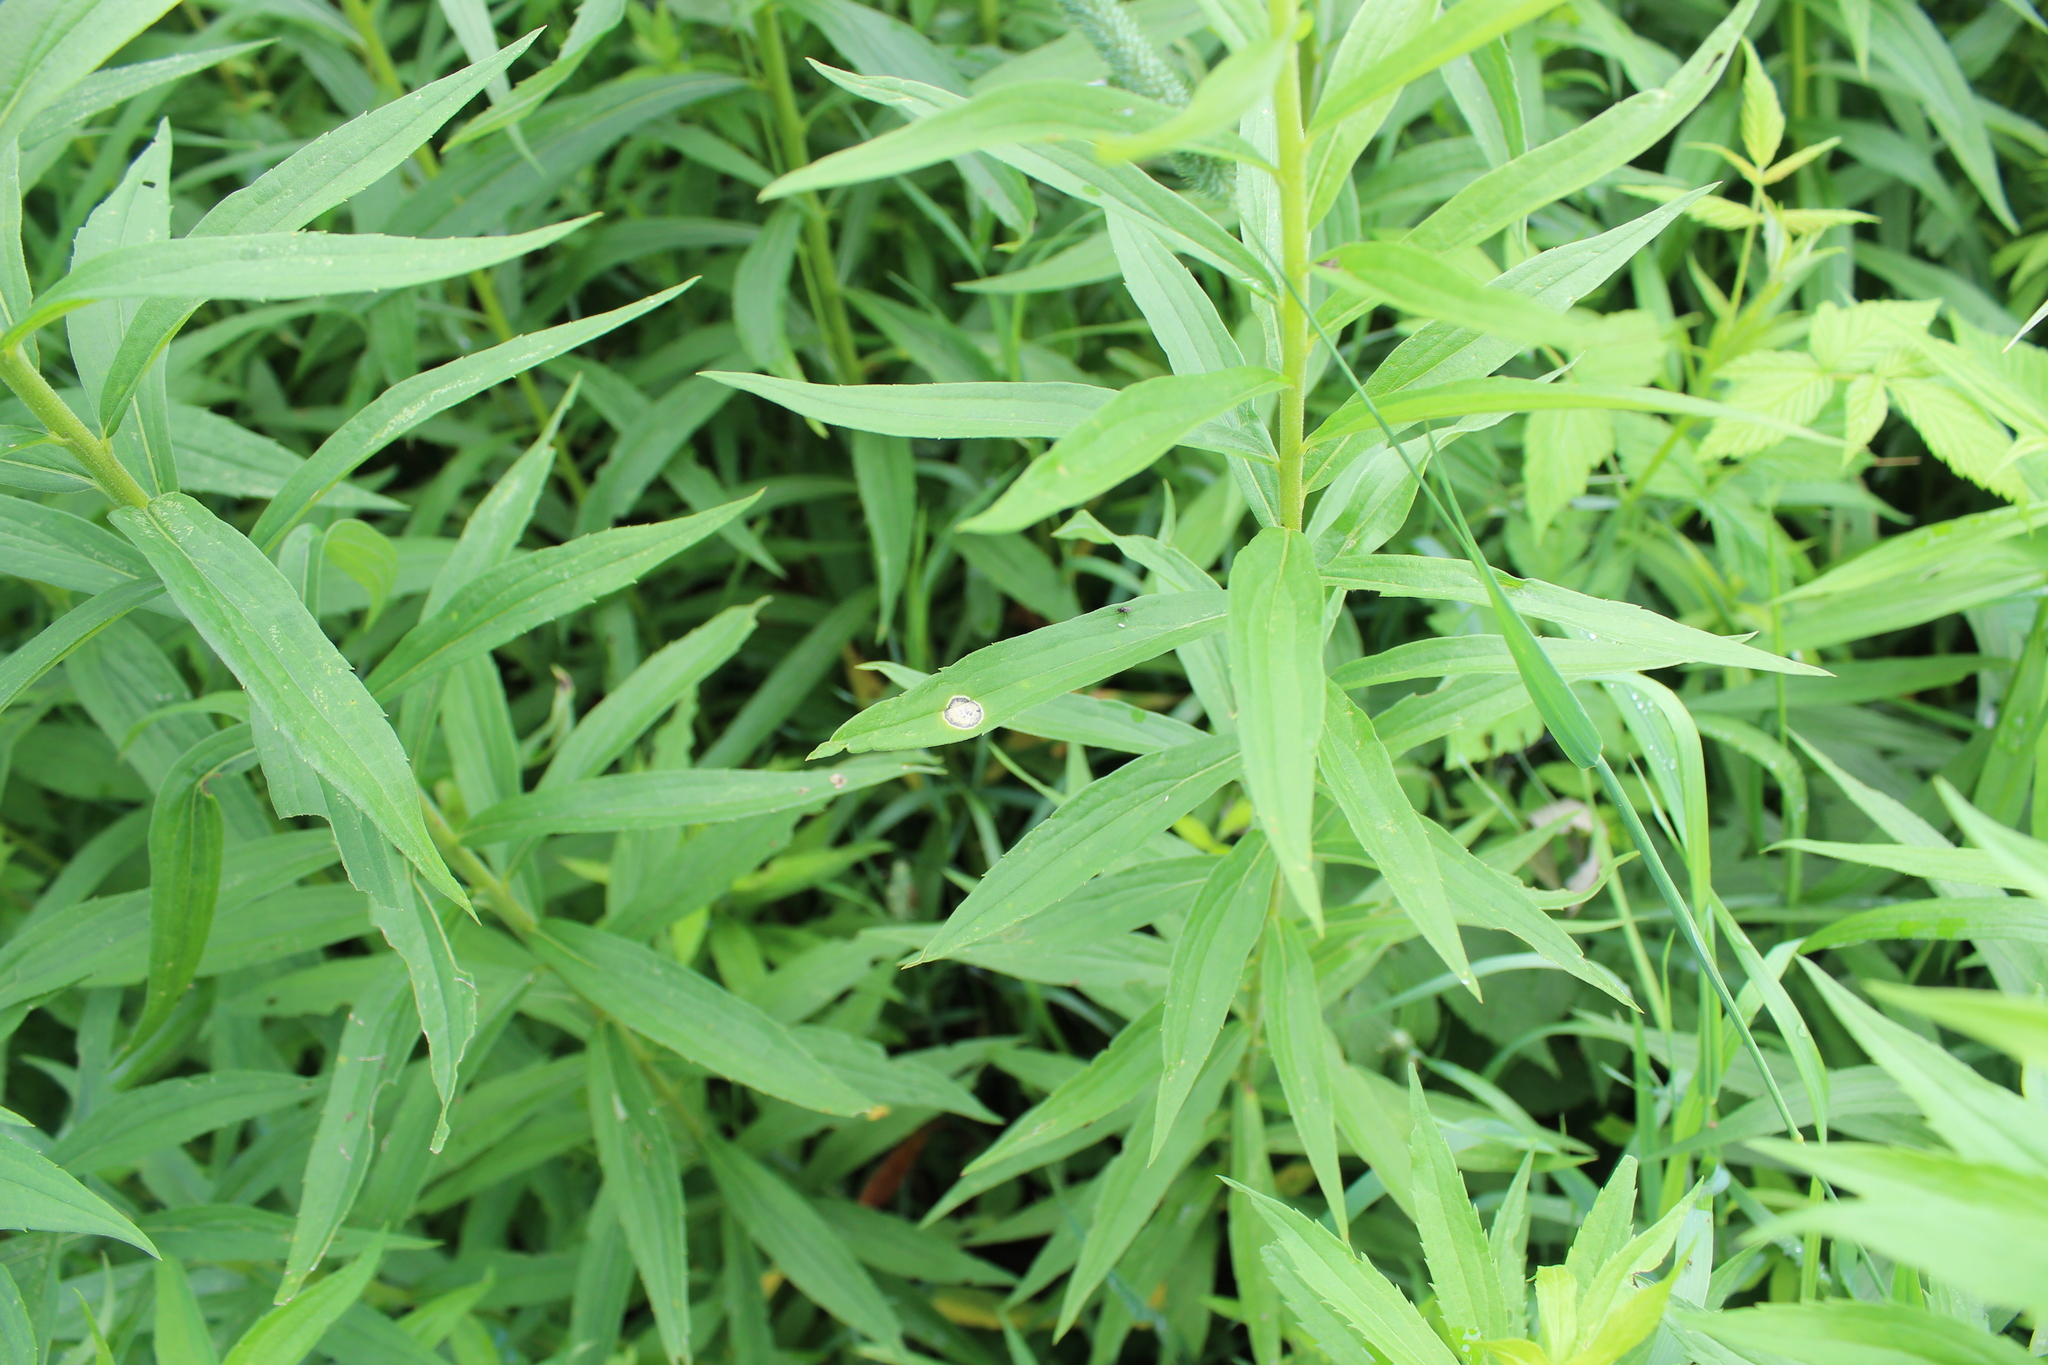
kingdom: Animalia
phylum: Arthropoda
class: Insecta
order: Diptera
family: Cecidomyiidae
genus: Asteromyia
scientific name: Asteromyia carbonifera
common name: Carbonifera goldenrod gall midge
